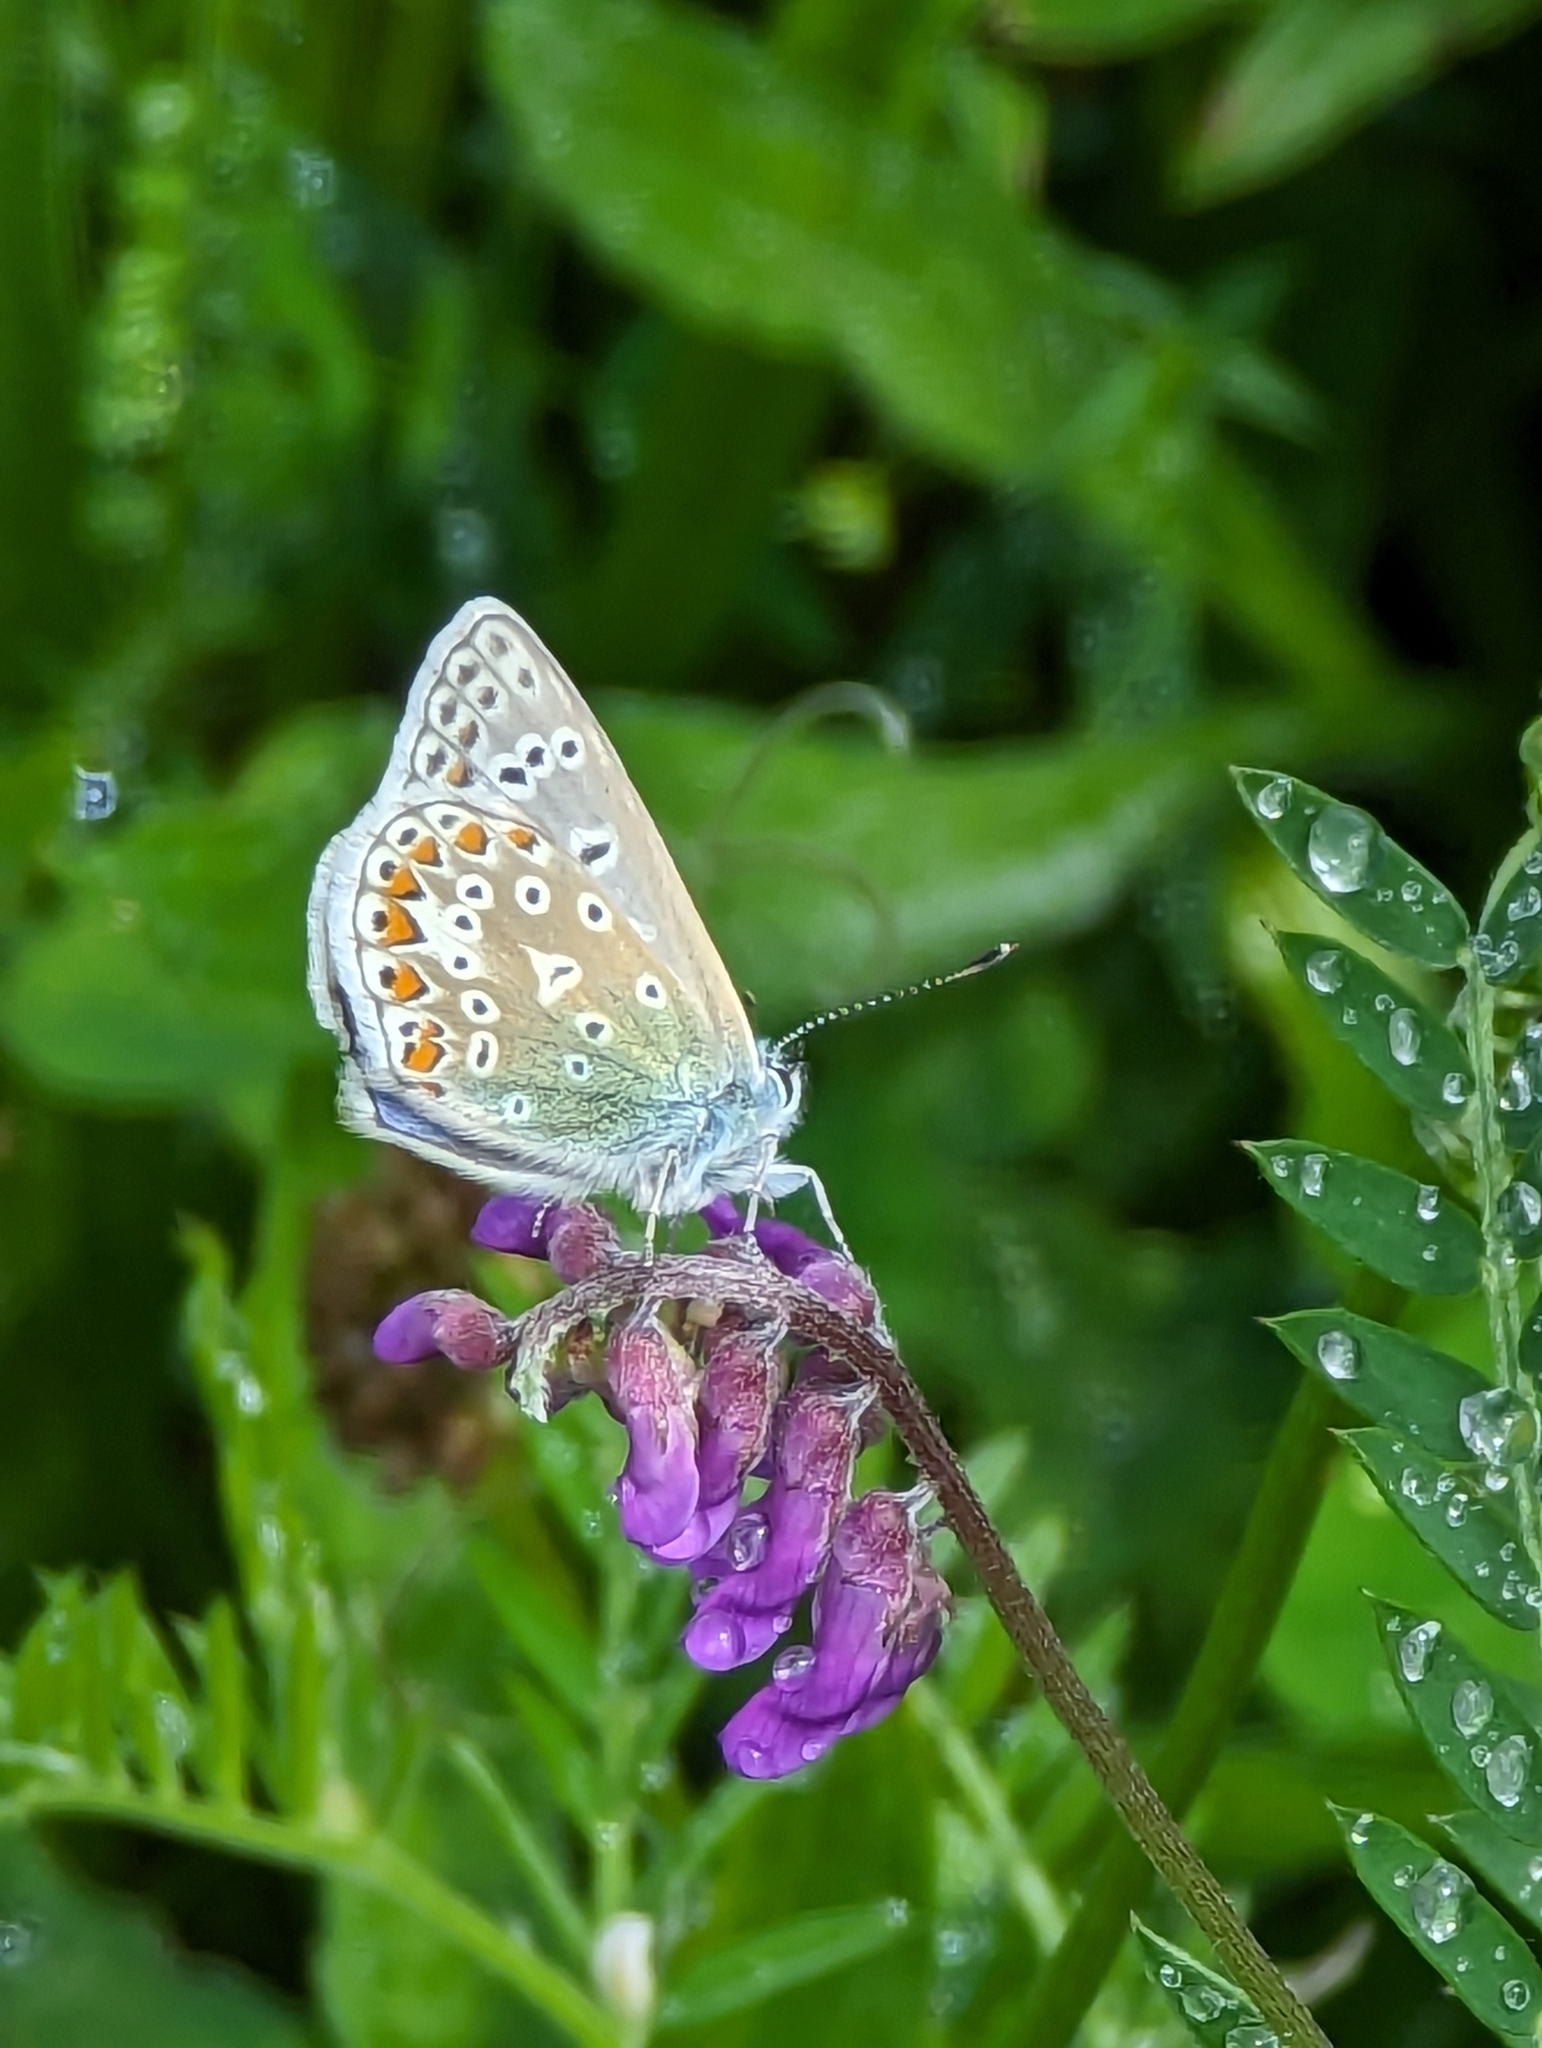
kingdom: Animalia
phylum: Arthropoda
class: Insecta
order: Lepidoptera
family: Lycaenidae
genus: Polyommatus
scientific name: Polyommatus icarus
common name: Common blue
